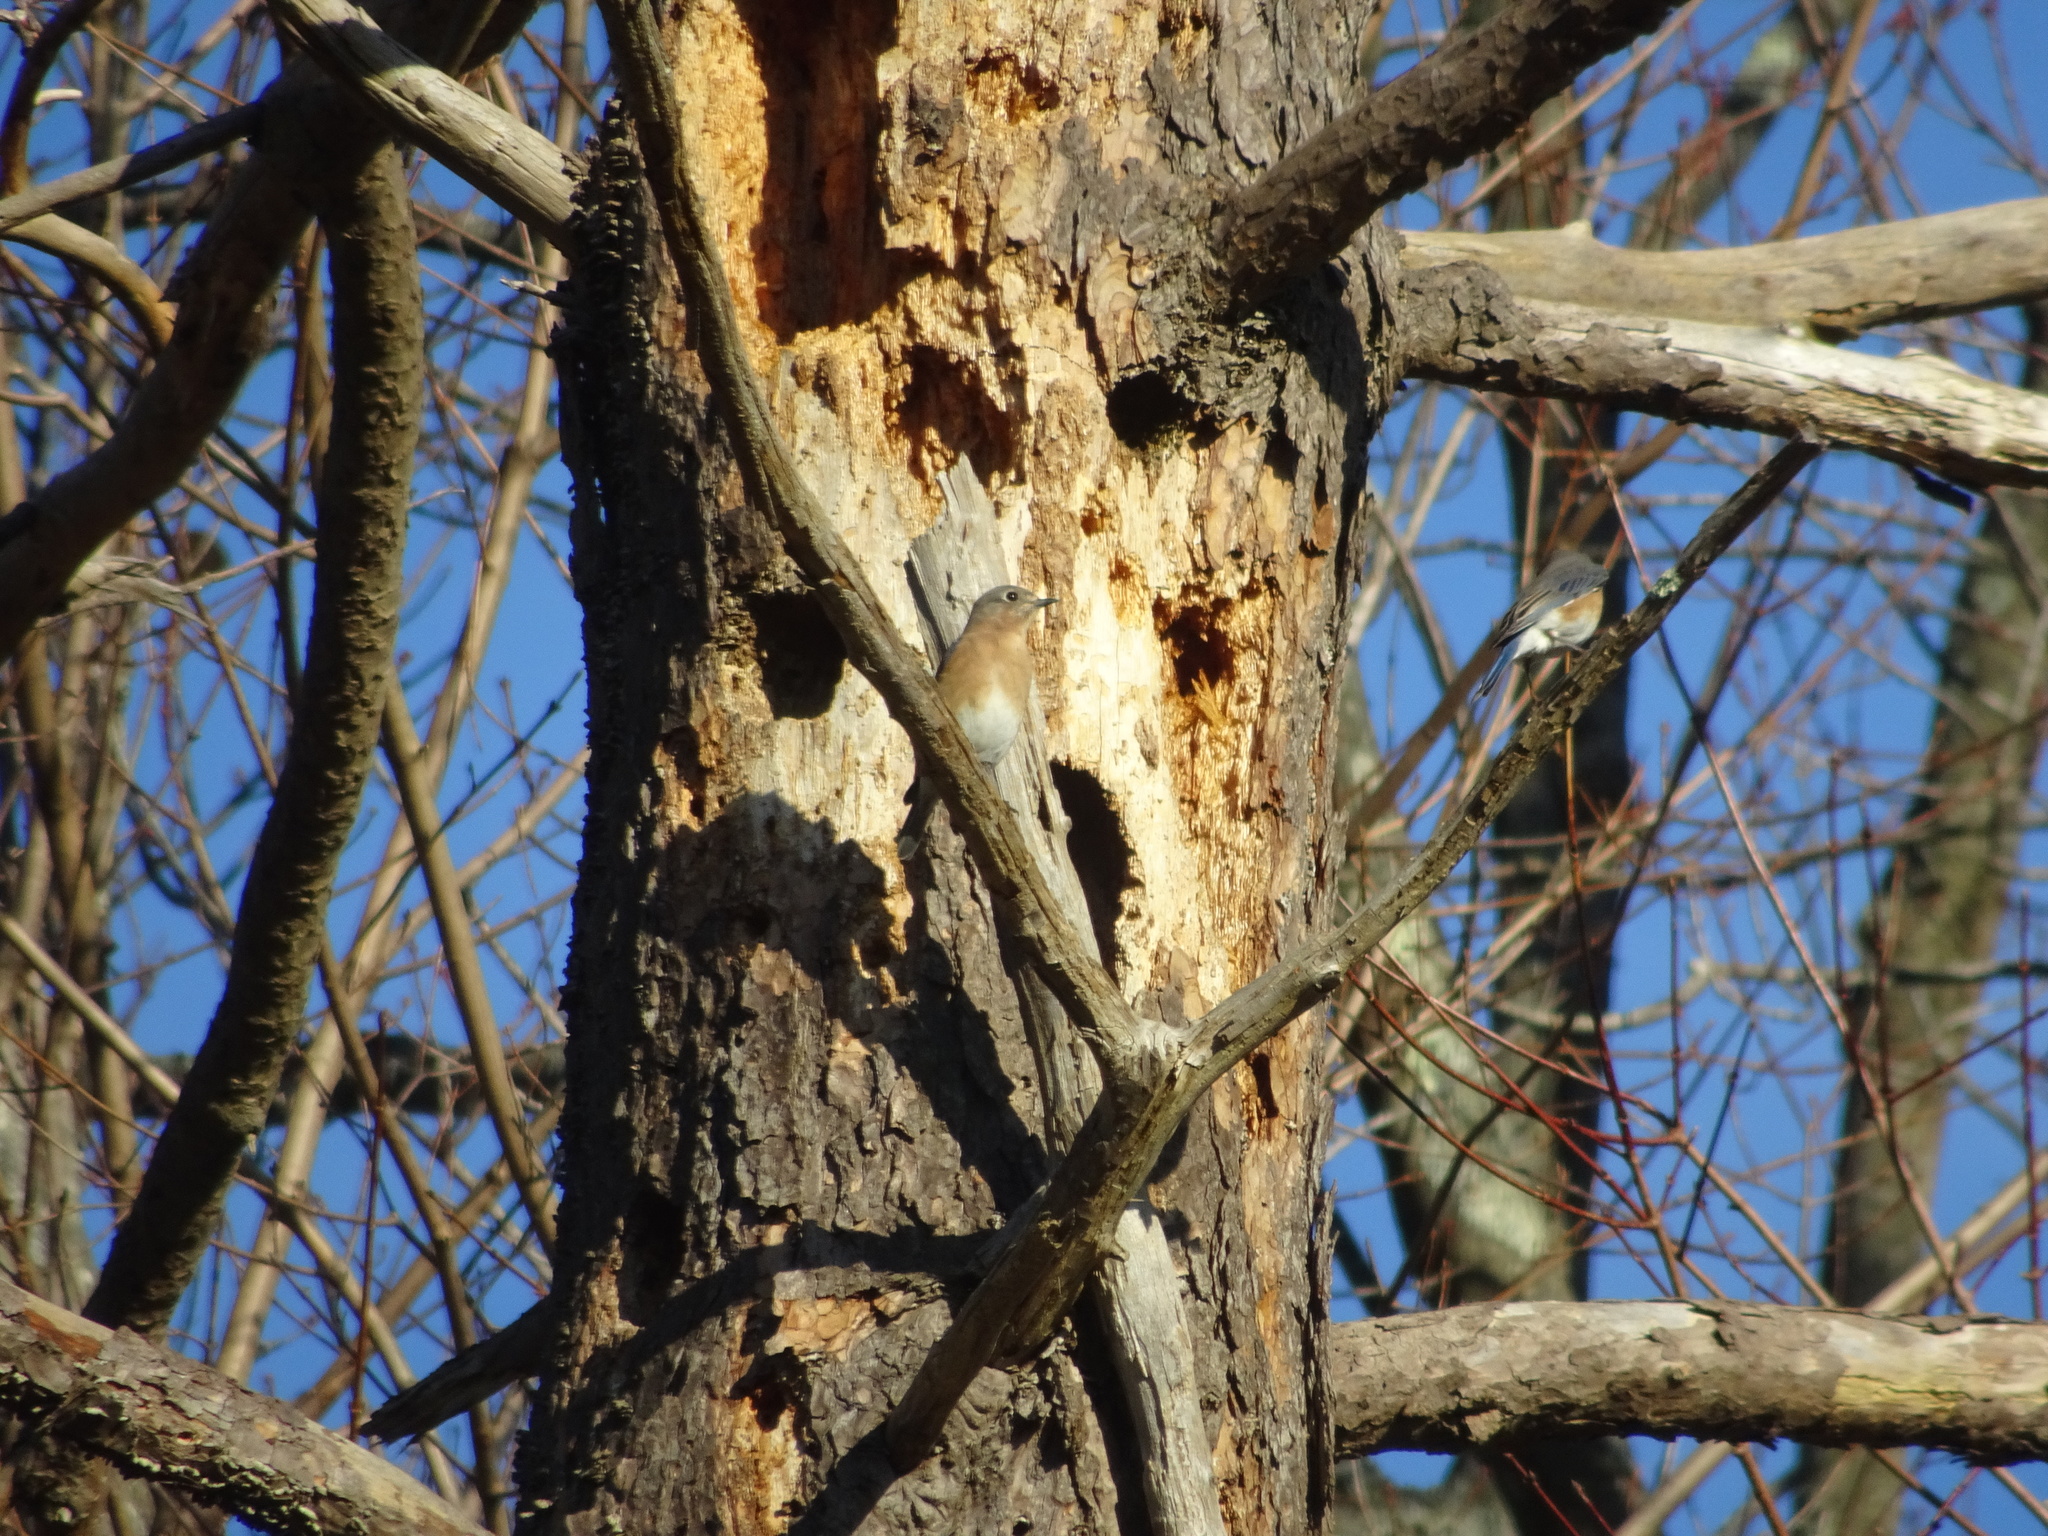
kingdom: Animalia
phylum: Chordata
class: Aves
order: Passeriformes
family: Turdidae
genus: Sialia
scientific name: Sialia sialis
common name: Eastern bluebird
